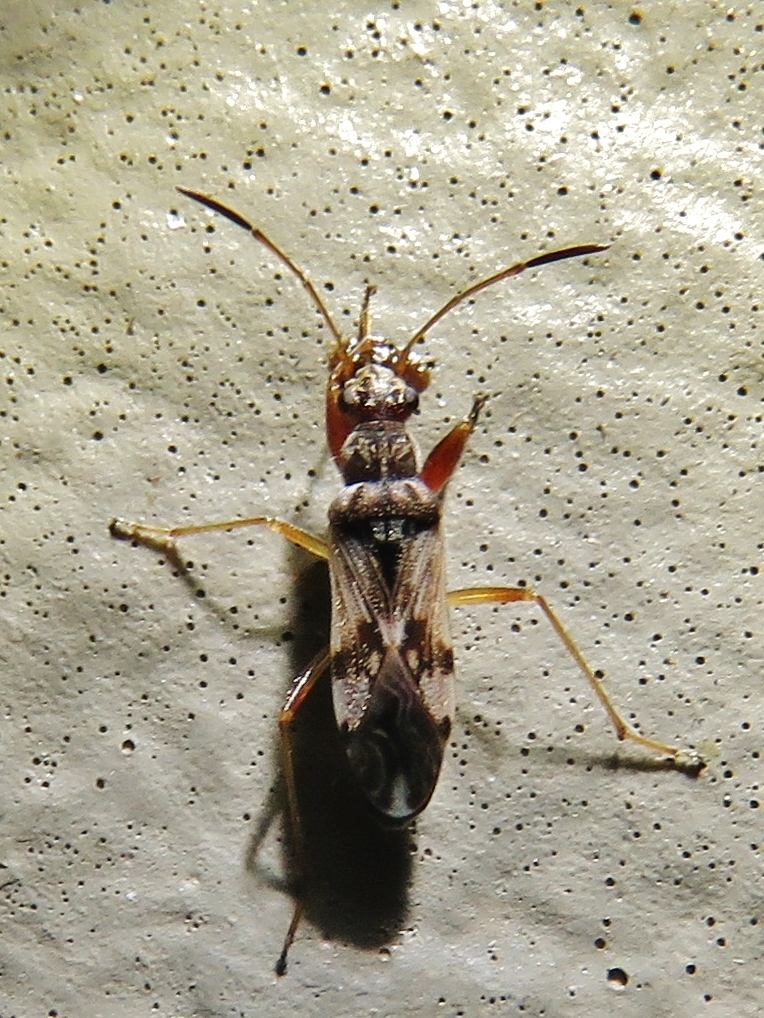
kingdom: Animalia
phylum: Arthropoda
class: Insecta
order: Hemiptera
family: Rhyparochromidae
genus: Neopamera
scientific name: Neopamera bilobata
